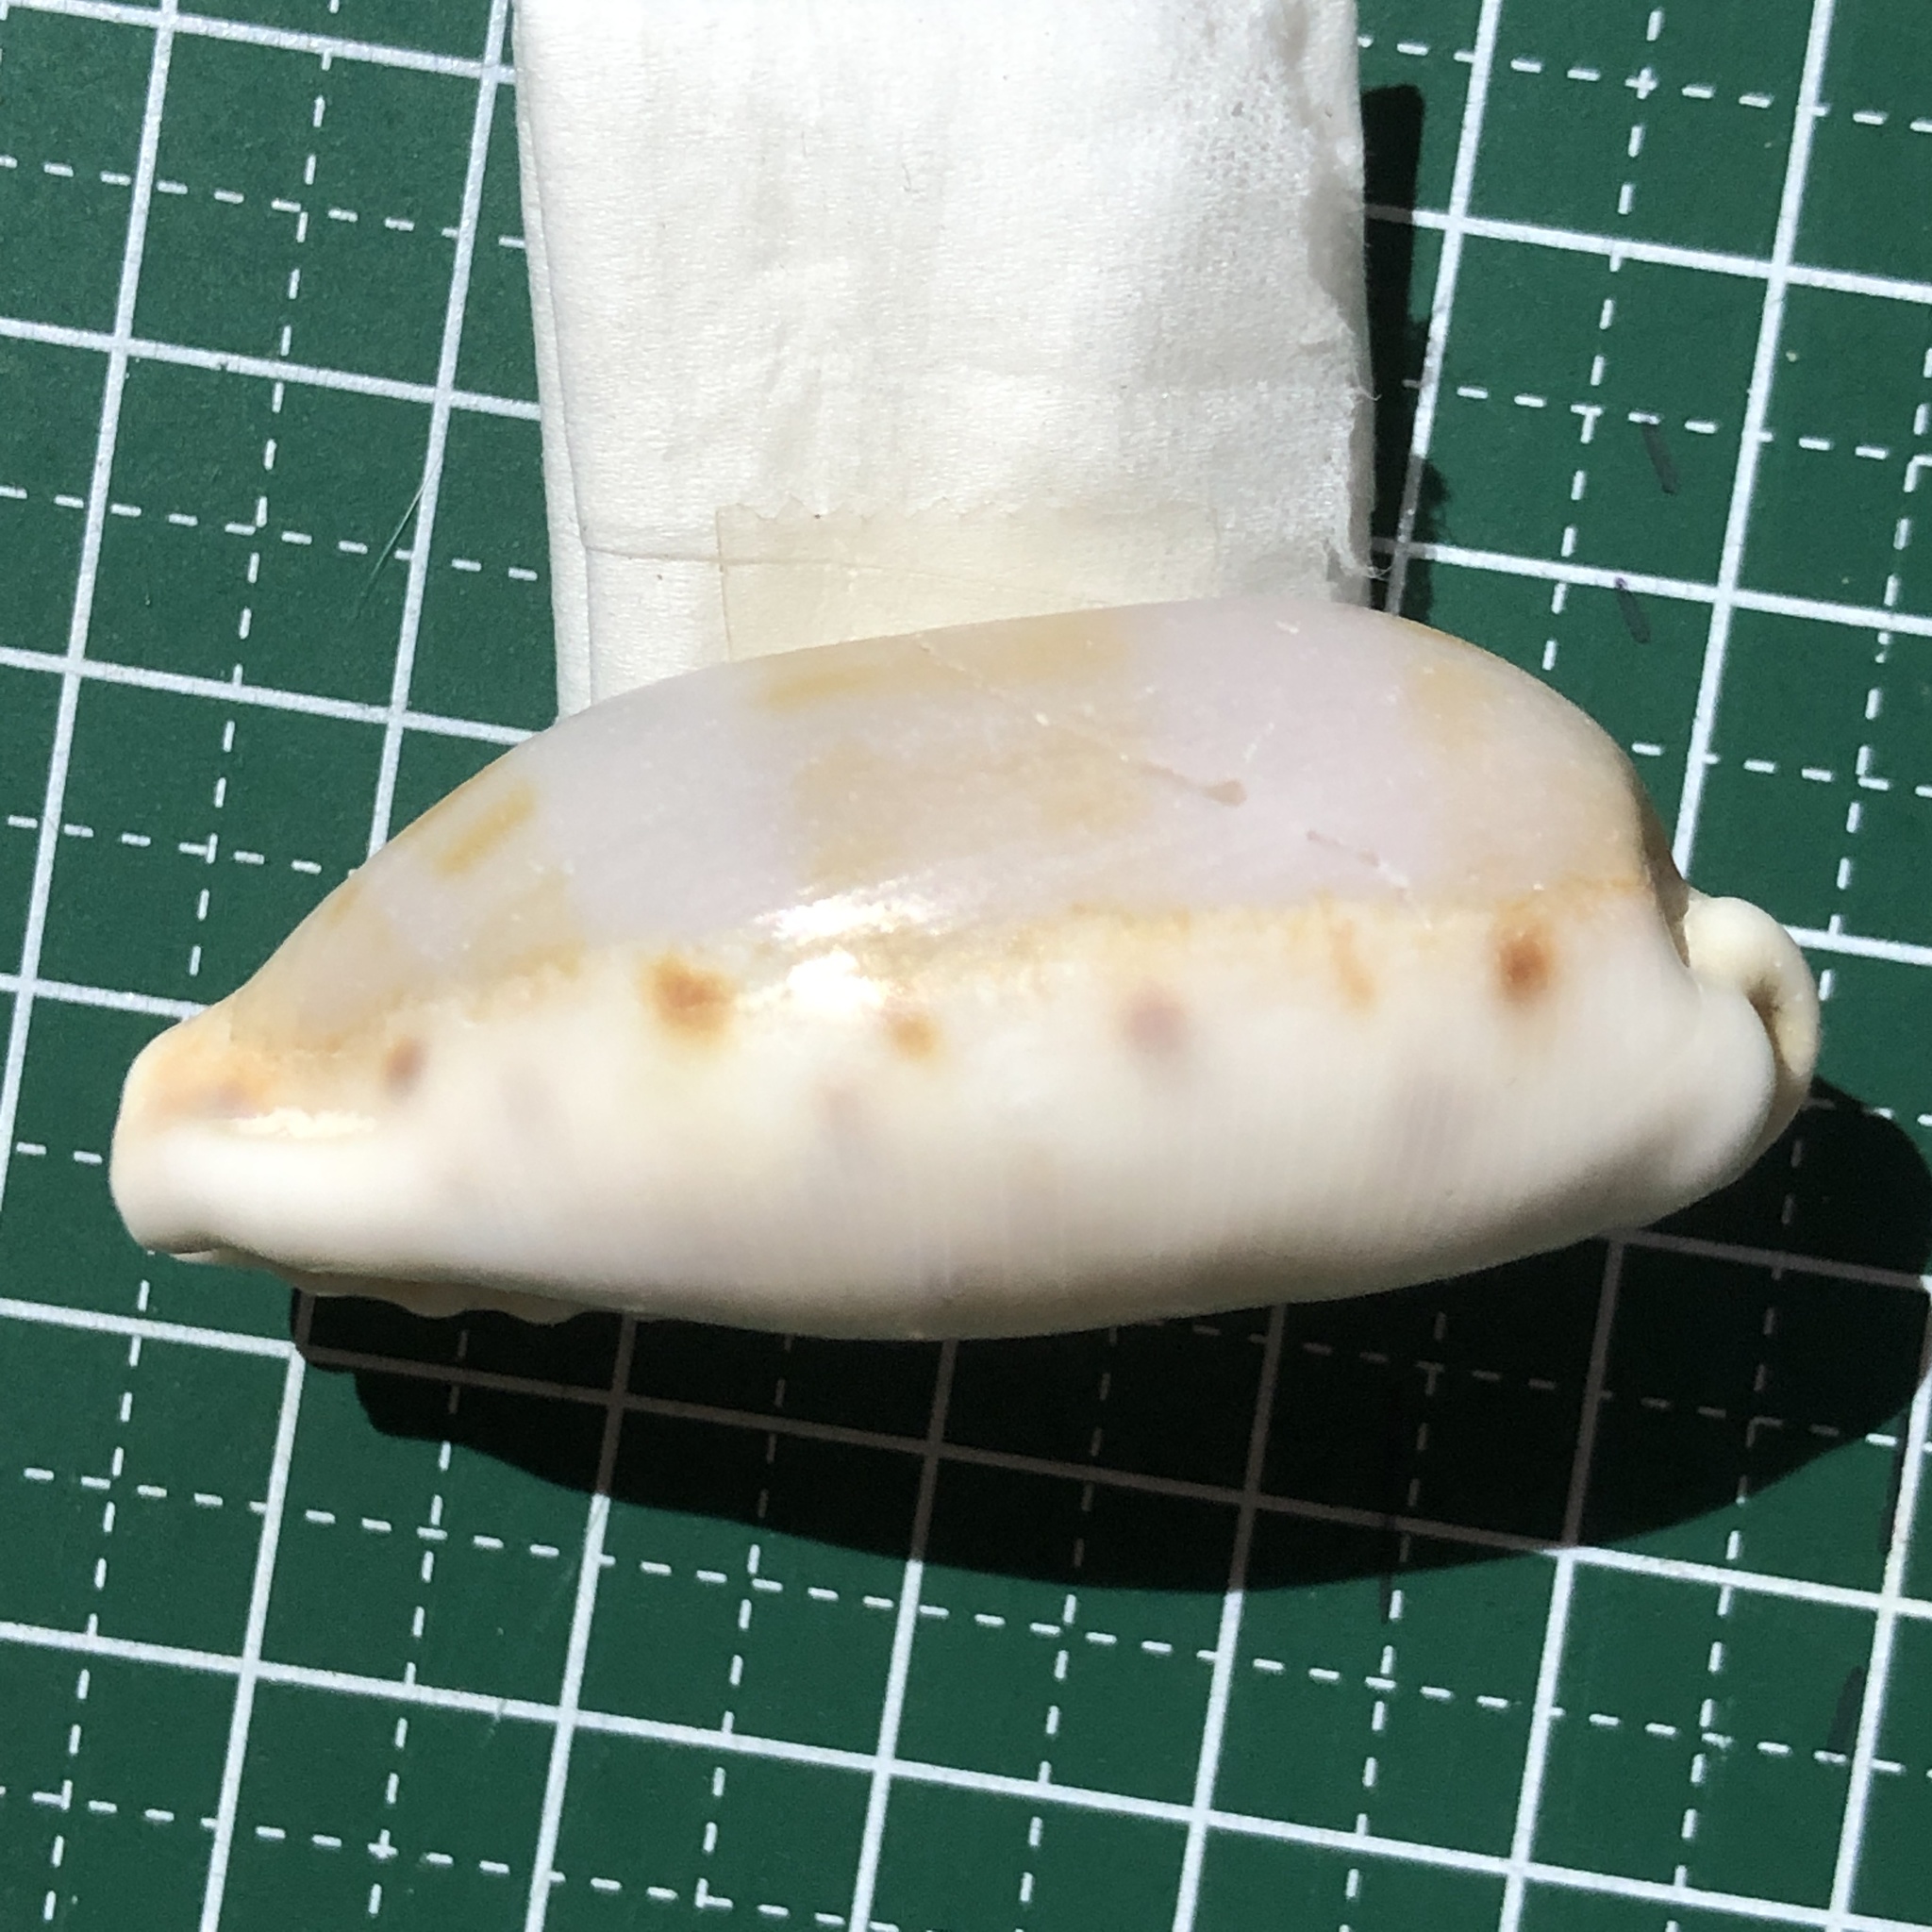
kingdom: Animalia
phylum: Mollusca
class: Gastropoda
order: Littorinimorpha
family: Cypraeidae
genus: Erronea
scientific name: Erronea caurica
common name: Thick-edged cowry
